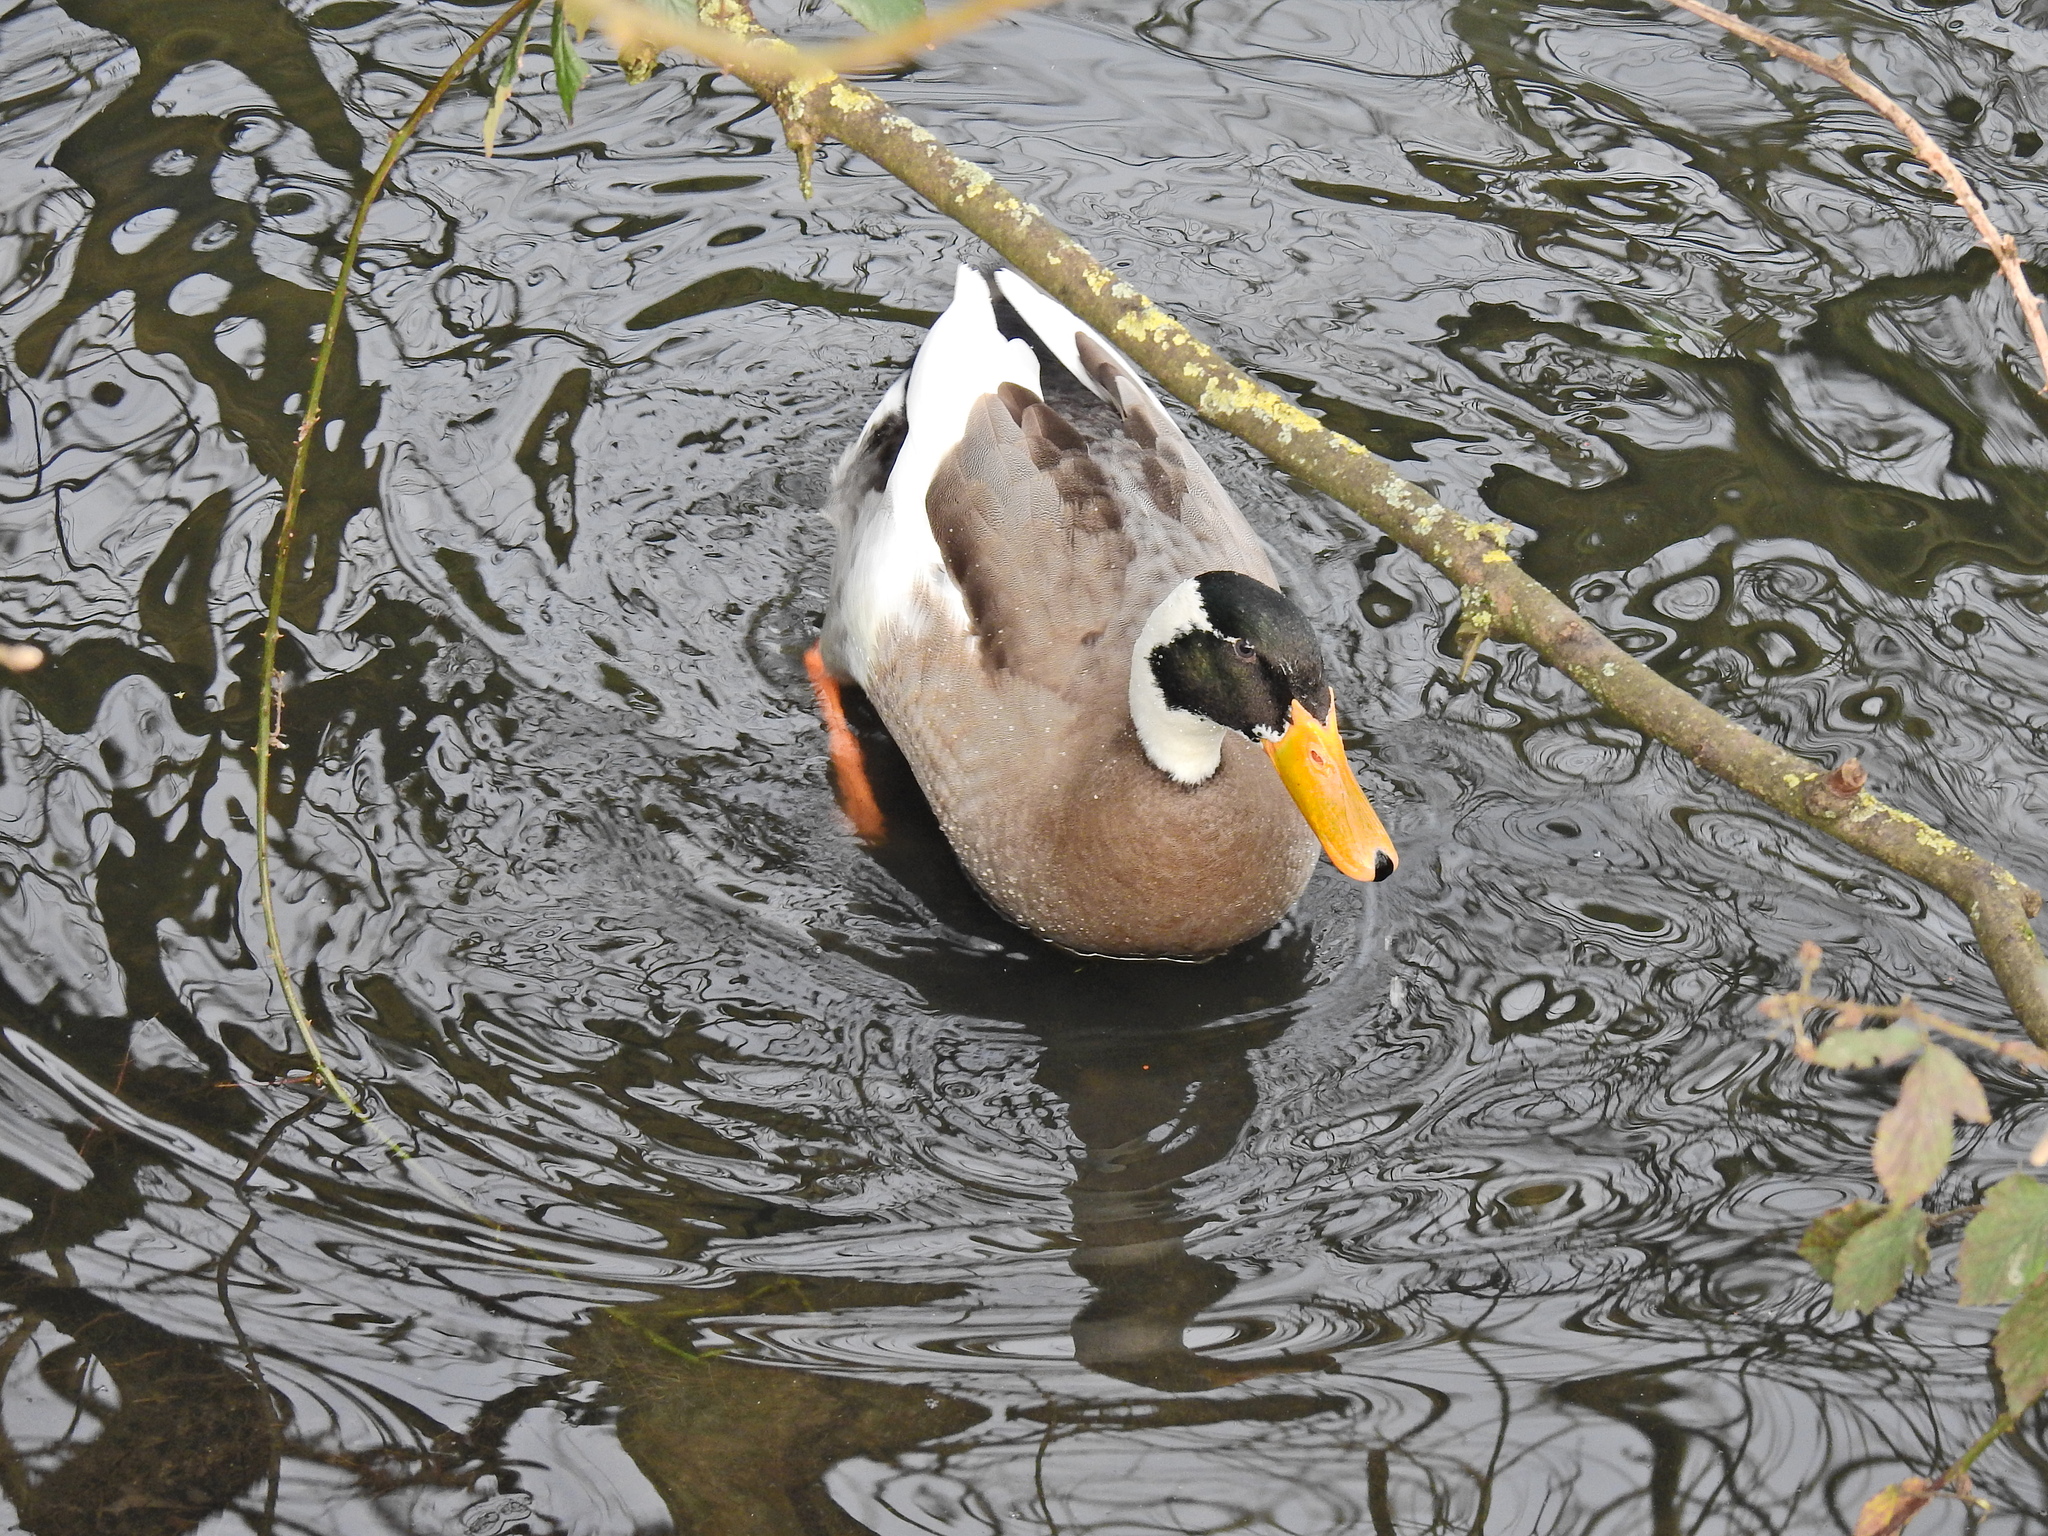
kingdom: Animalia
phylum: Chordata
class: Aves
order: Anseriformes
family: Anatidae
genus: Anas
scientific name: Anas platyrhynchos
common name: Mallard
